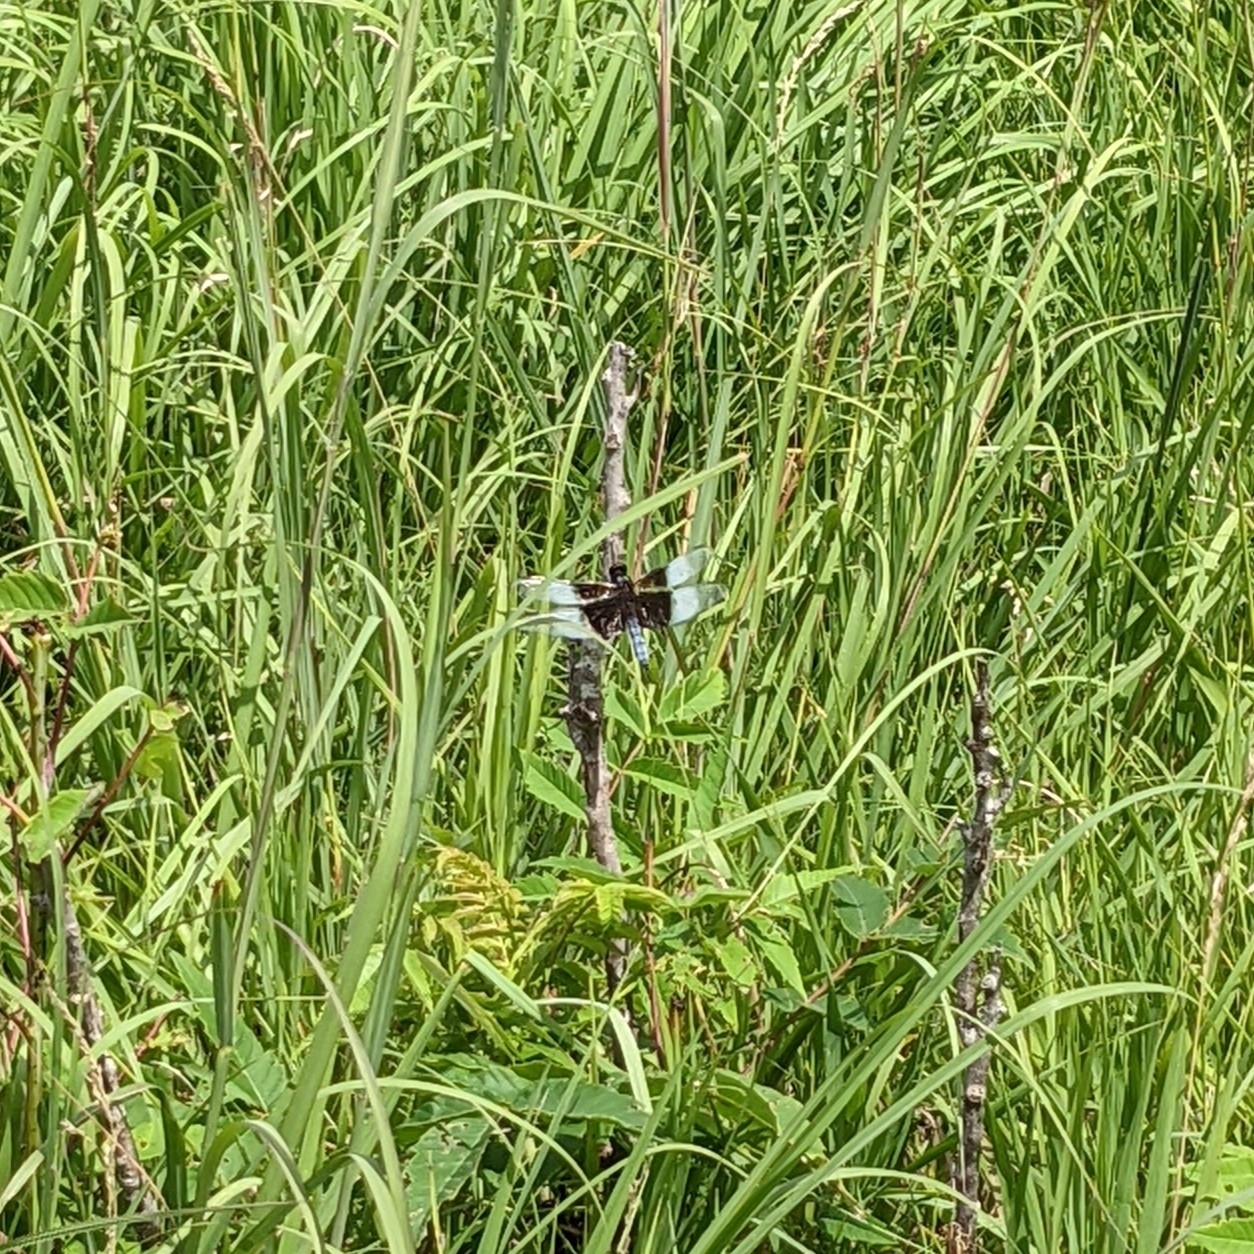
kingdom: Animalia
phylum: Arthropoda
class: Insecta
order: Odonata
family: Libellulidae
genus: Libellula
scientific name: Libellula luctuosa
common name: Widow skimmer
